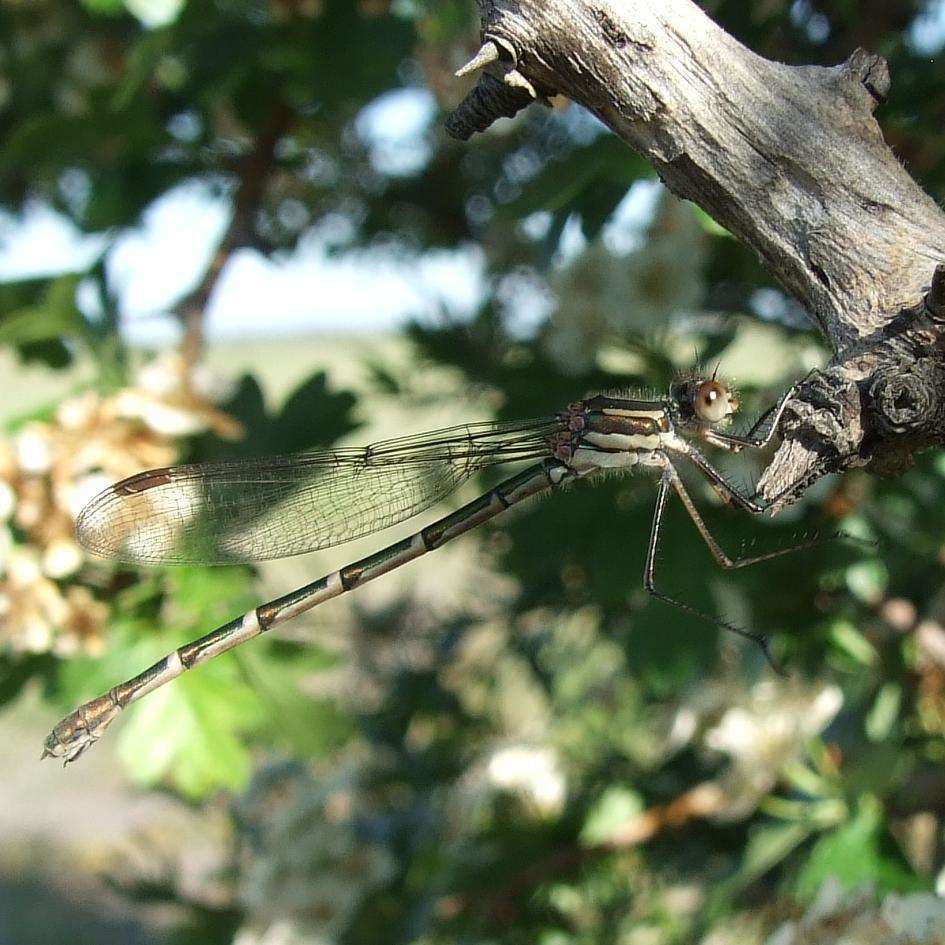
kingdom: Animalia
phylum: Arthropoda
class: Insecta
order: Odonata
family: Lestidae
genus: Austrolestes
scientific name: Austrolestes annulosus
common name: Blue ringtail
